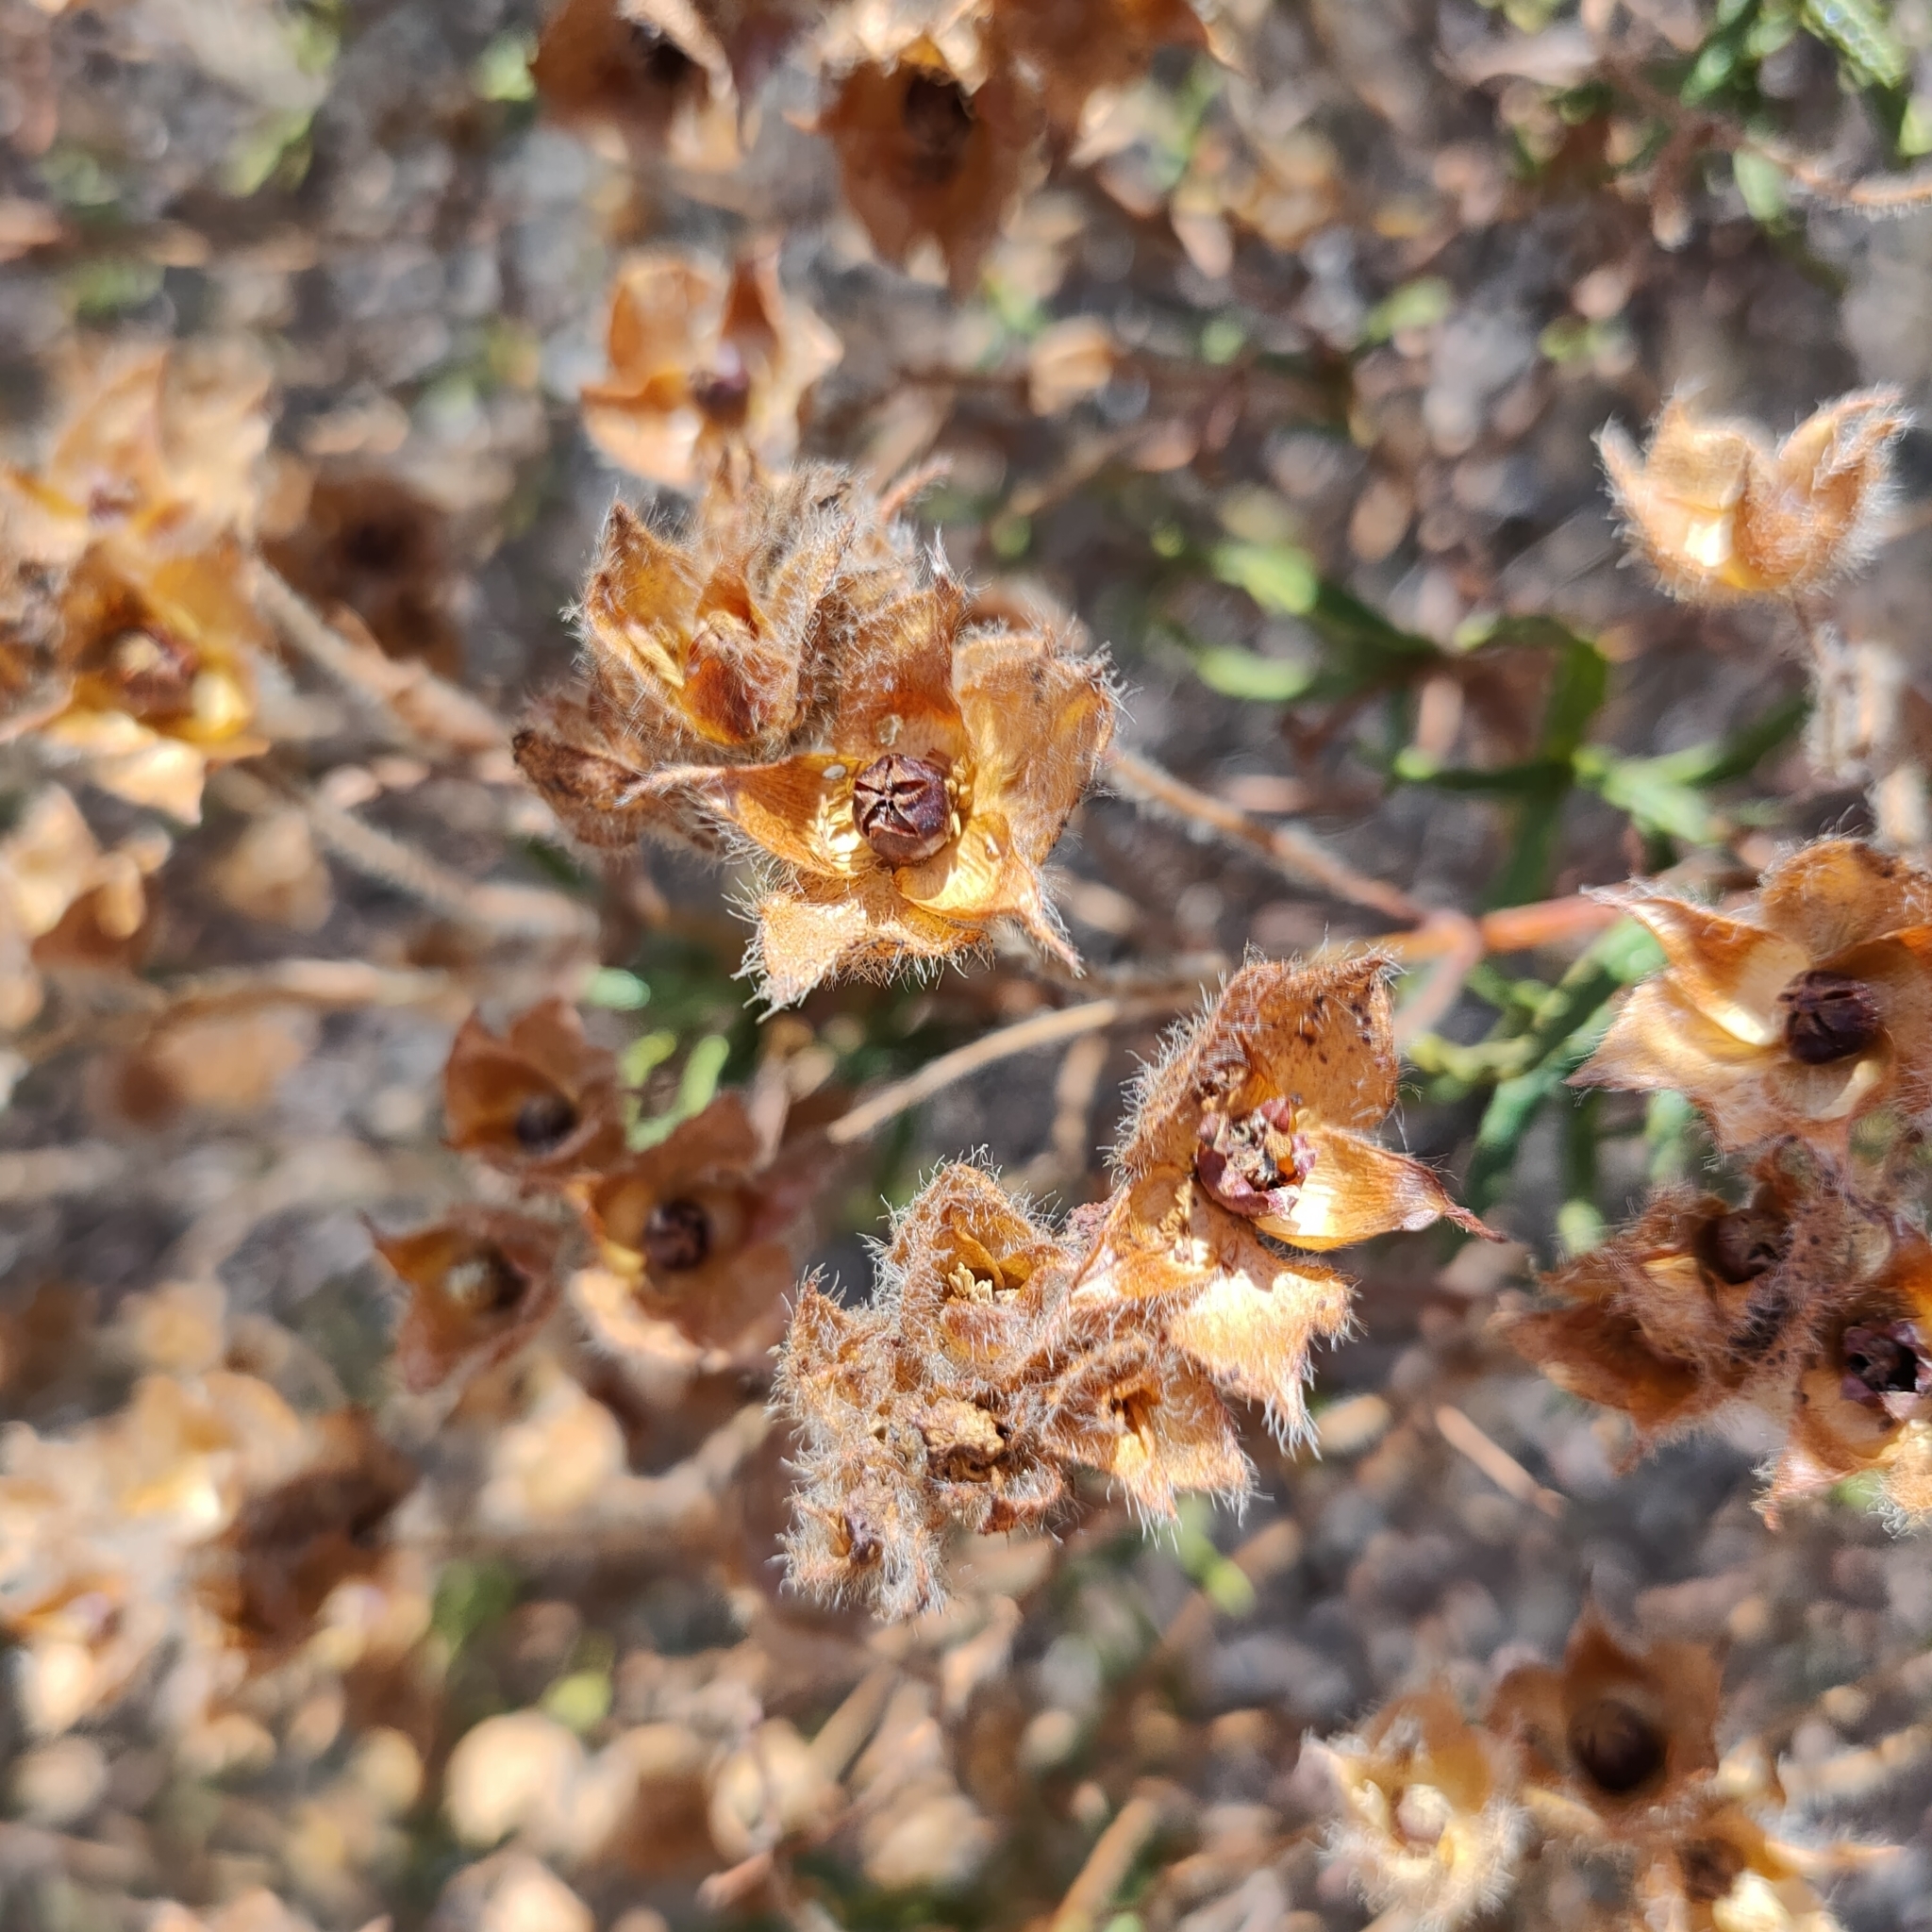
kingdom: Plantae
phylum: Tracheophyta
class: Magnoliopsida
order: Malvales
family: Cistaceae
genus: Cistus
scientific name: Cistus monspeliensis
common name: Montpelier cistus
